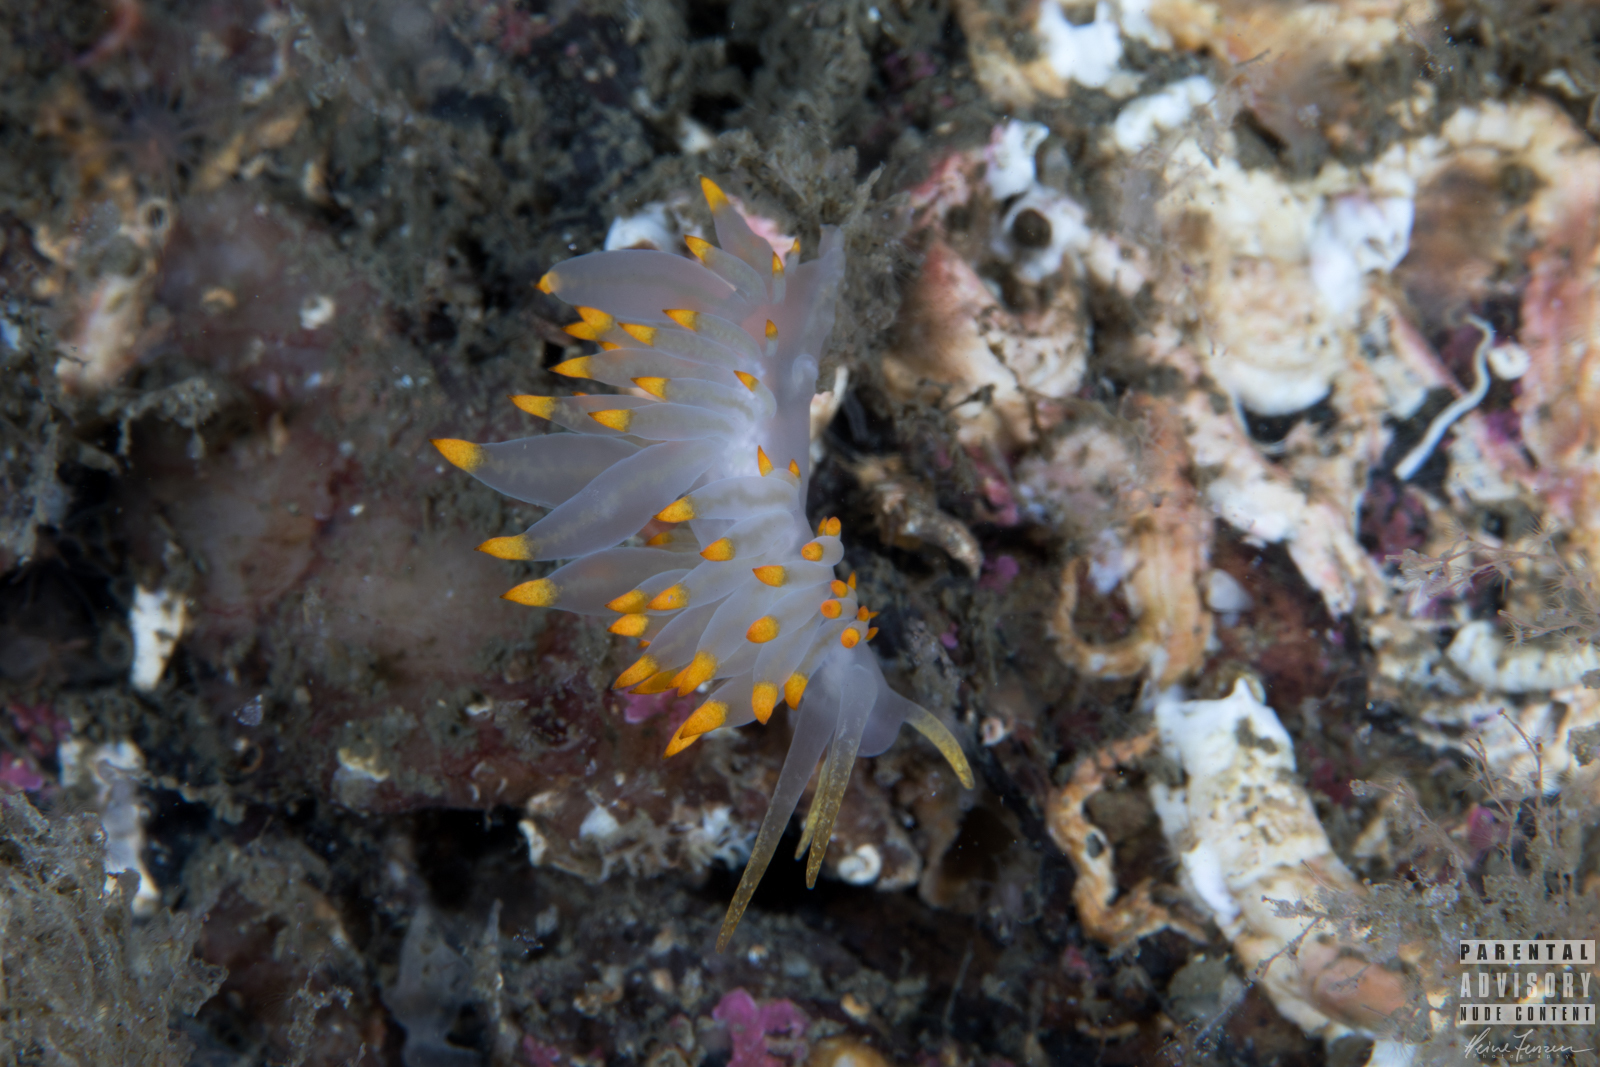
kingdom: Animalia
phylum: Mollusca
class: Gastropoda
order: Nudibranchia
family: Eubranchidae
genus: Amphorina
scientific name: Amphorina farrani
